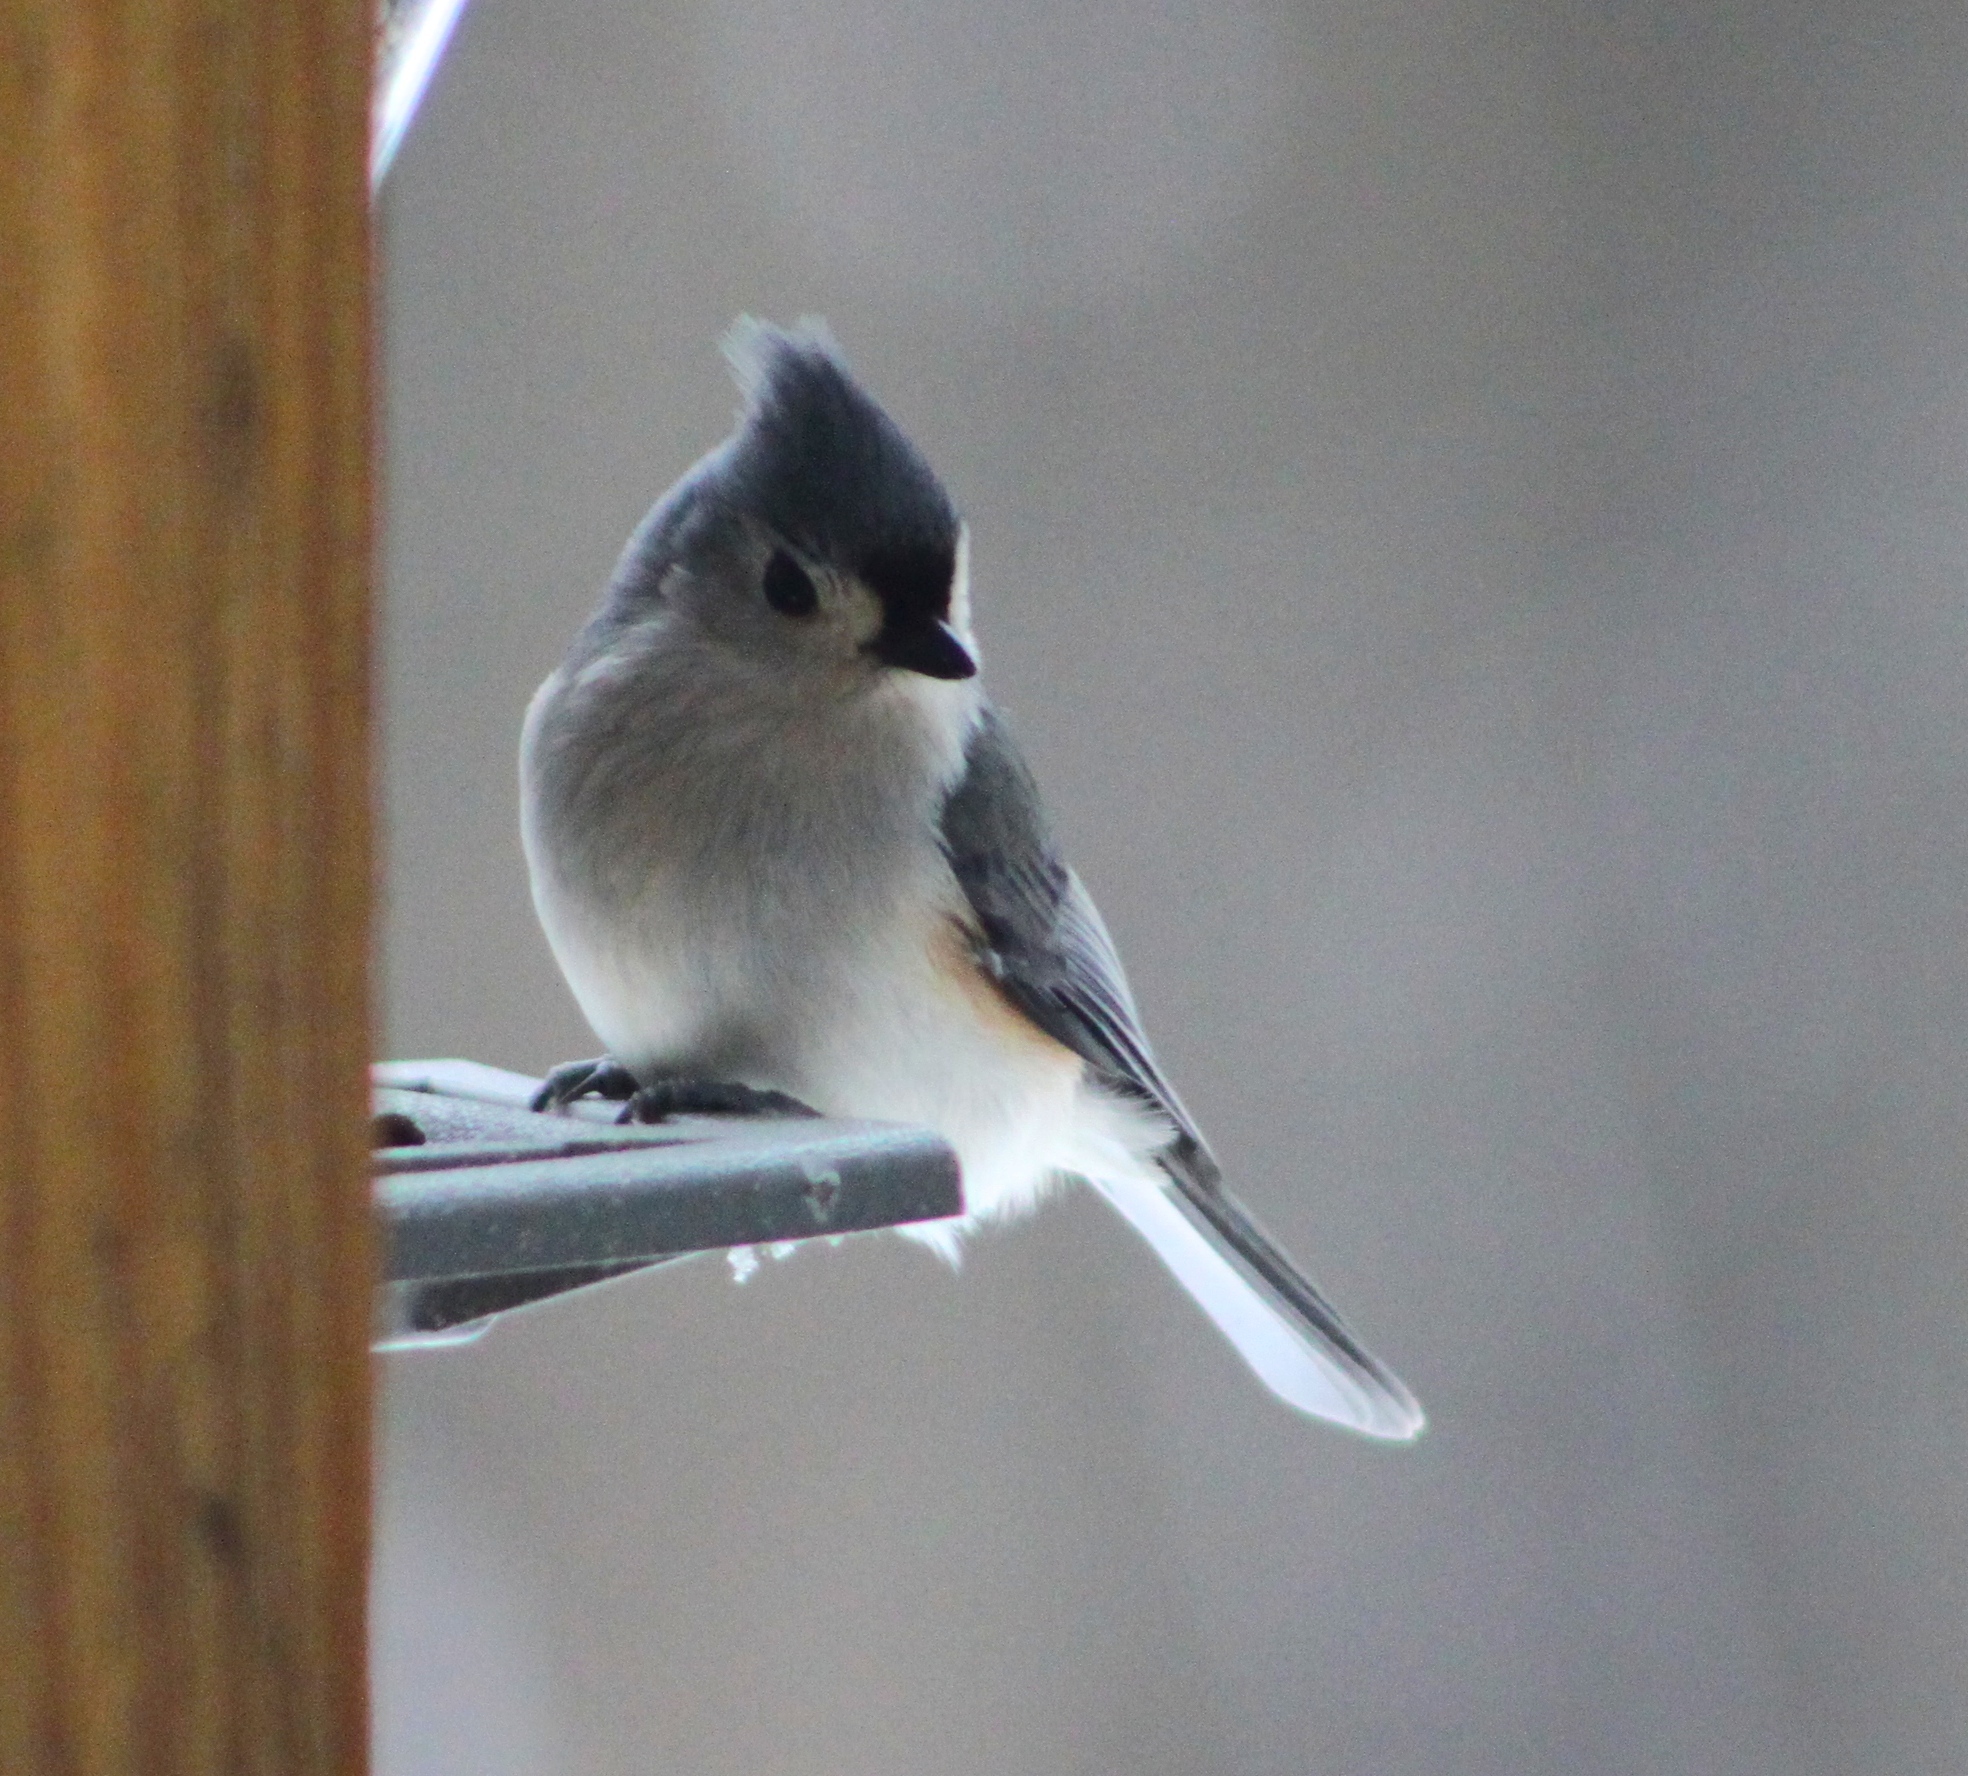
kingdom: Animalia
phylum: Chordata
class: Aves
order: Passeriformes
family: Paridae
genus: Baeolophus
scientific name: Baeolophus bicolor
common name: Tufted titmouse
